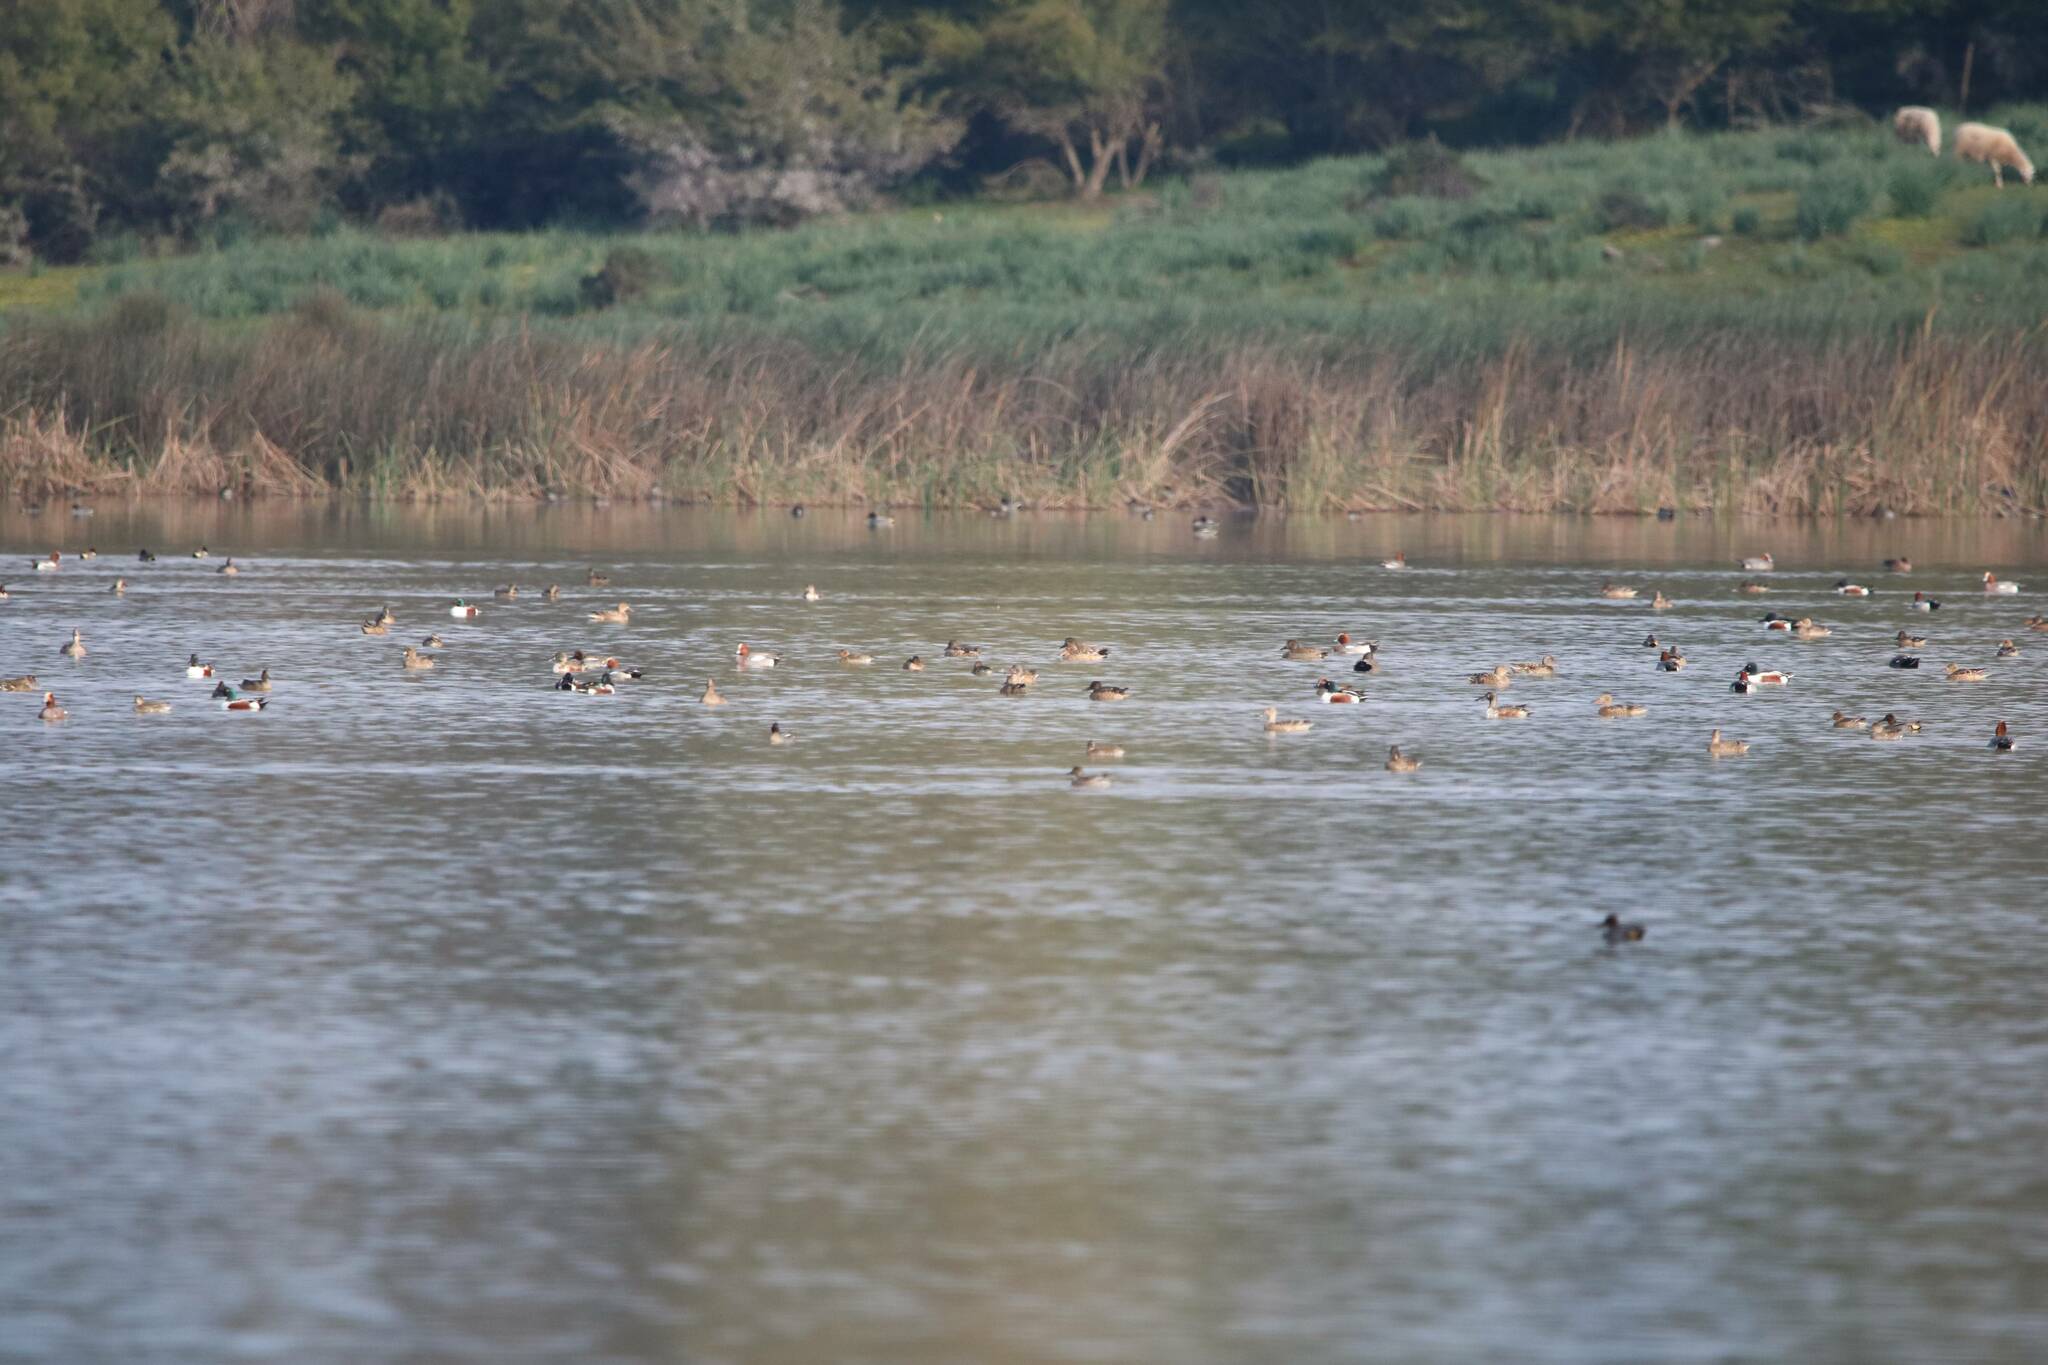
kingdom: Animalia
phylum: Chordata
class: Aves
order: Anseriformes
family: Anatidae
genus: Mareca
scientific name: Mareca penelope
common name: Eurasian wigeon
